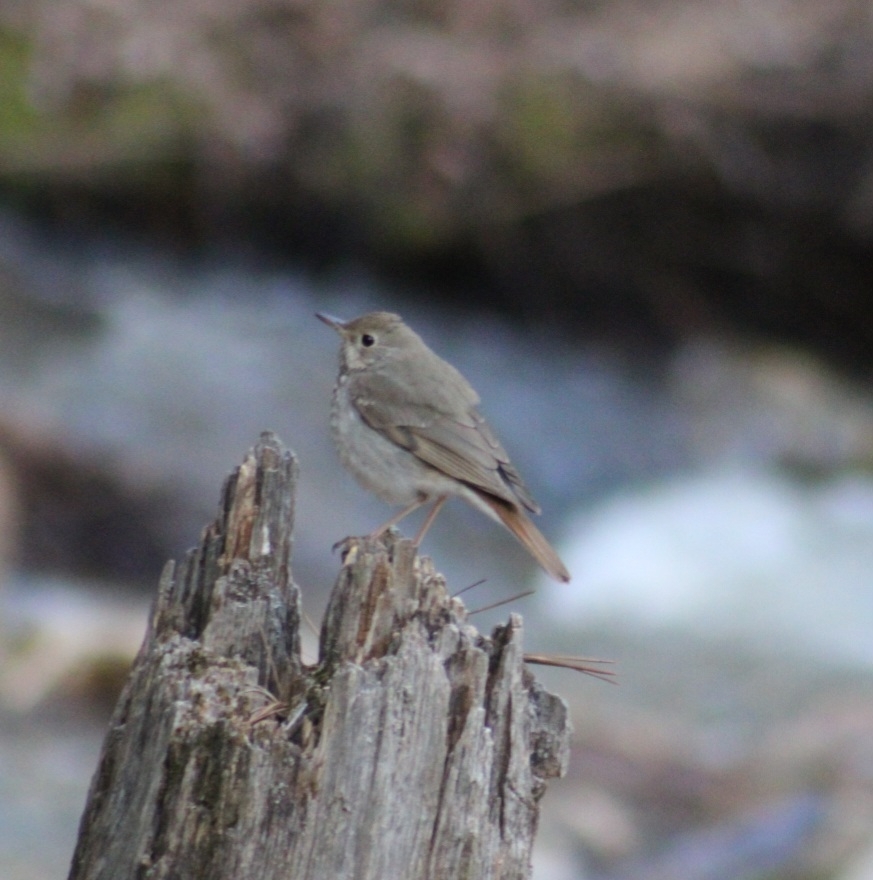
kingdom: Animalia
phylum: Chordata
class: Aves
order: Passeriformes
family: Turdidae
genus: Catharus
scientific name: Catharus guttatus
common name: Hermit thrush
